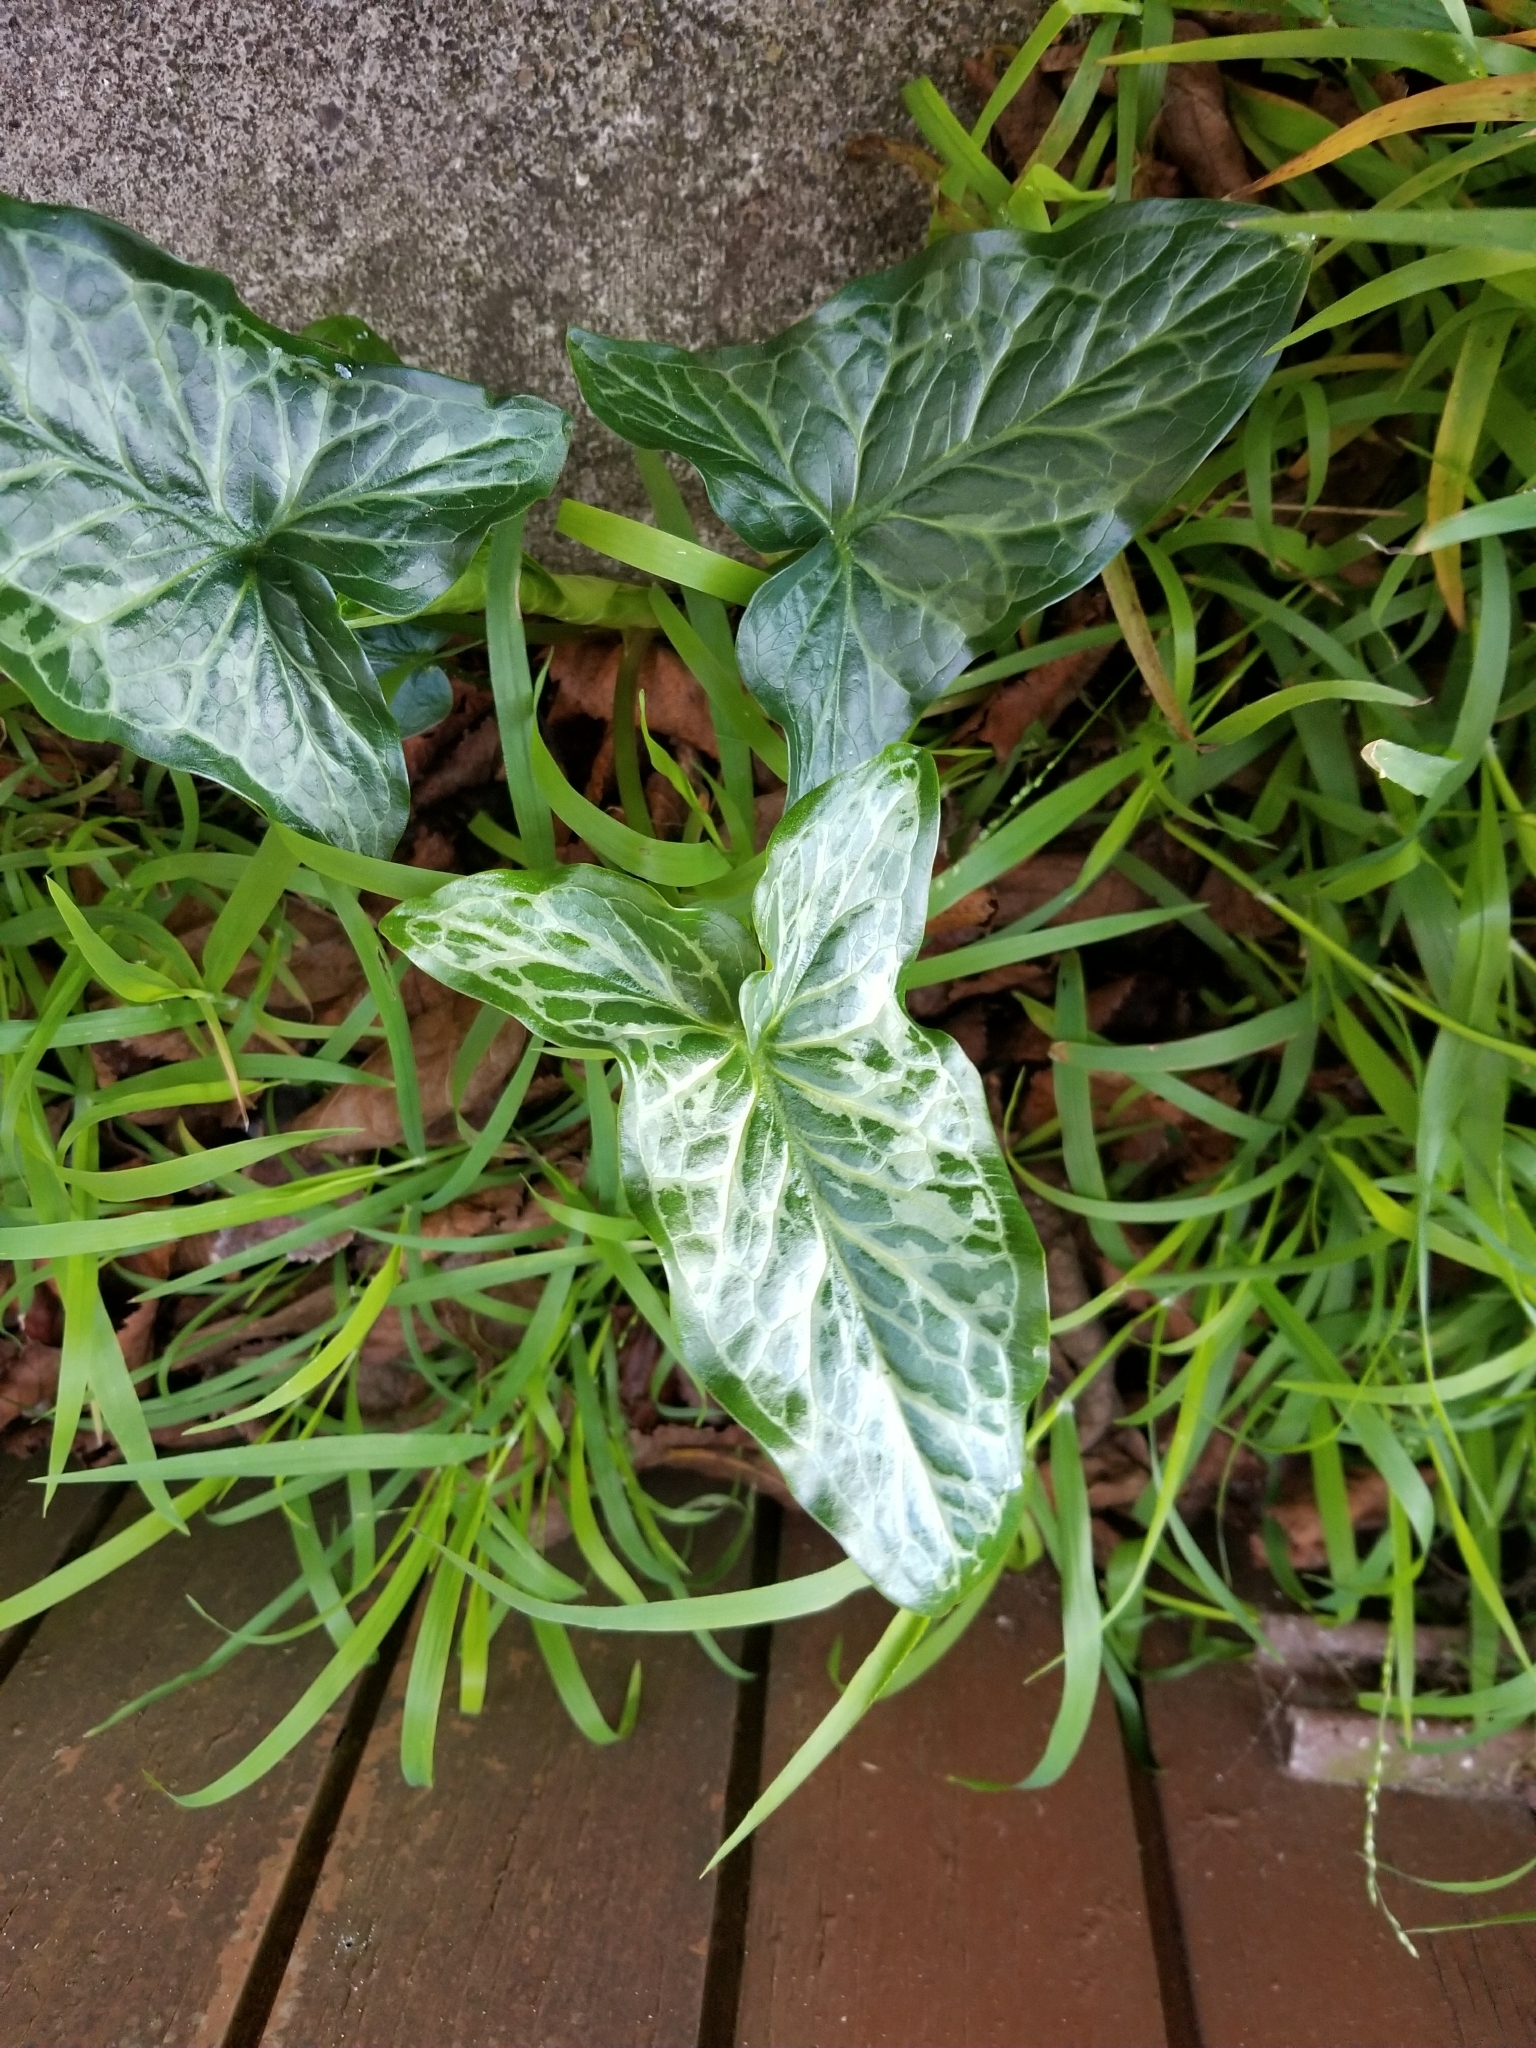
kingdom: Plantae
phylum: Tracheophyta
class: Liliopsida
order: Alismatales
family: Araceae
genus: Arum
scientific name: Arum italicum
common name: Italian lords-and-ladies
